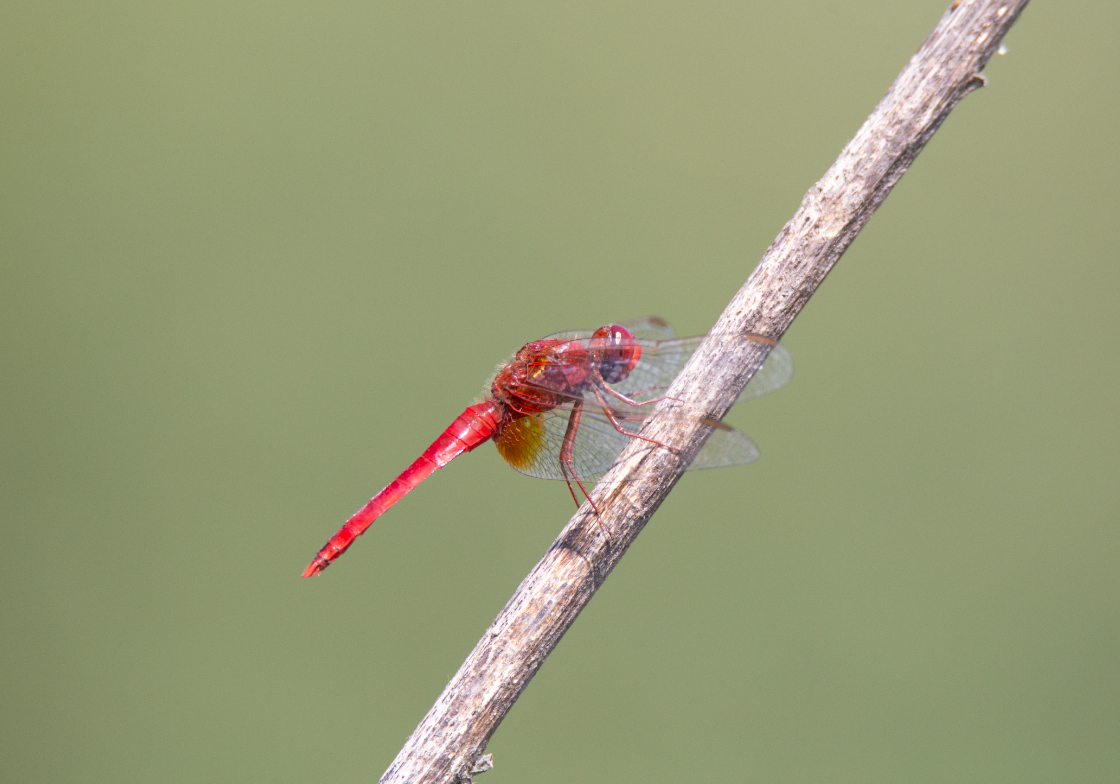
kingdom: Animalia
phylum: Arthropoda
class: Insecta
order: Odonata
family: Libellulidae
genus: Crocothemis
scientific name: Crocothemis erythraea
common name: Scarlet dragonfly
